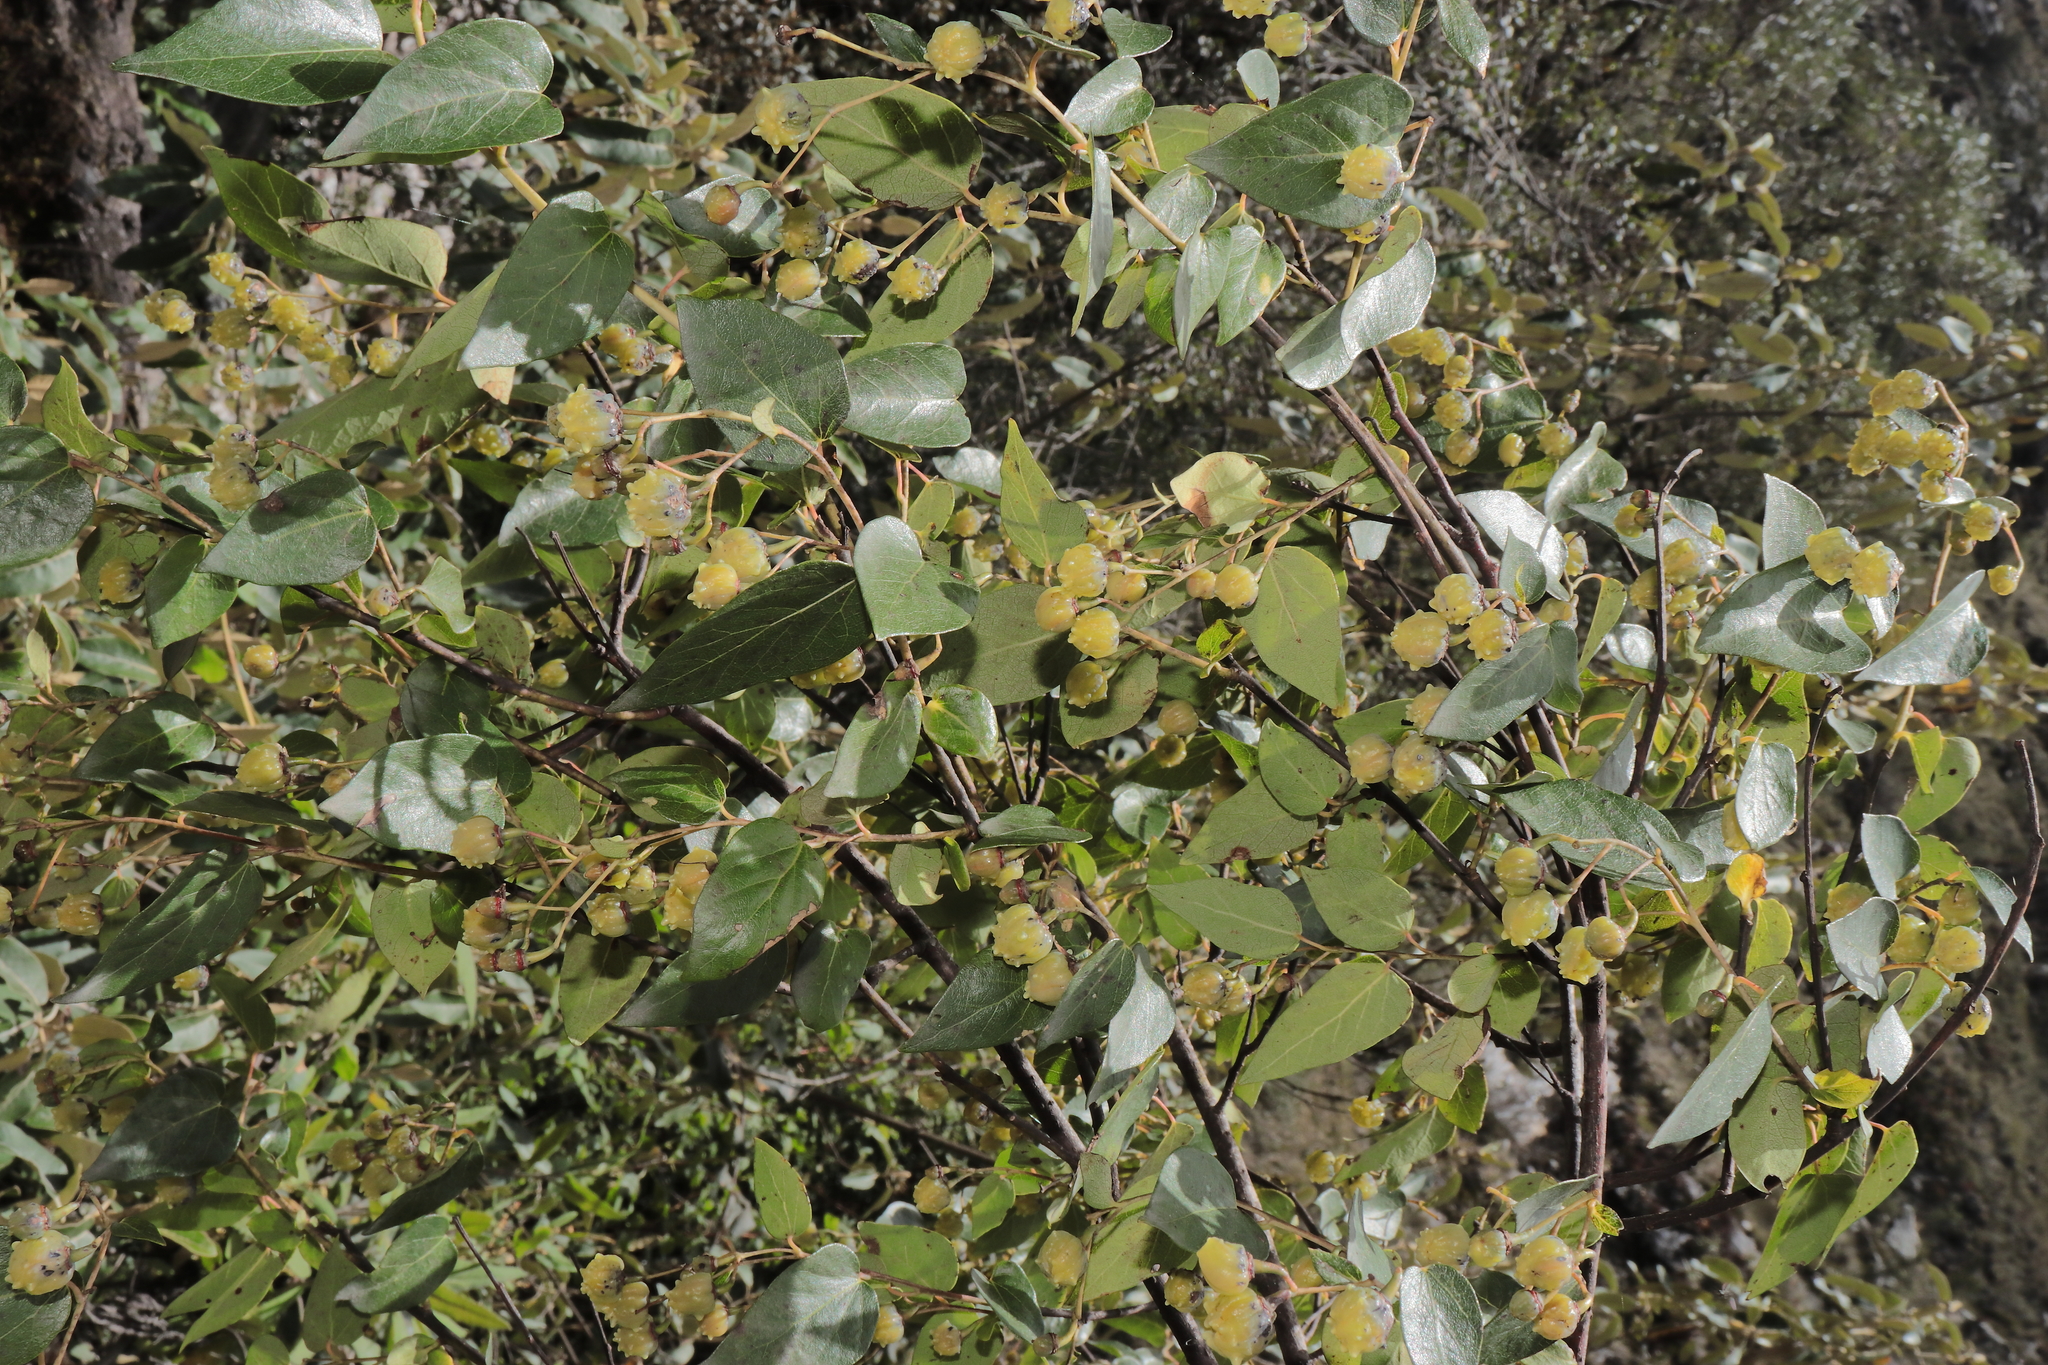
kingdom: Plantae
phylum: Tracheophyta
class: Magnoliopsida
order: Oxalidales
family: Elaeocarpaceae
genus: Vallea
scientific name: Vallea stipularis
